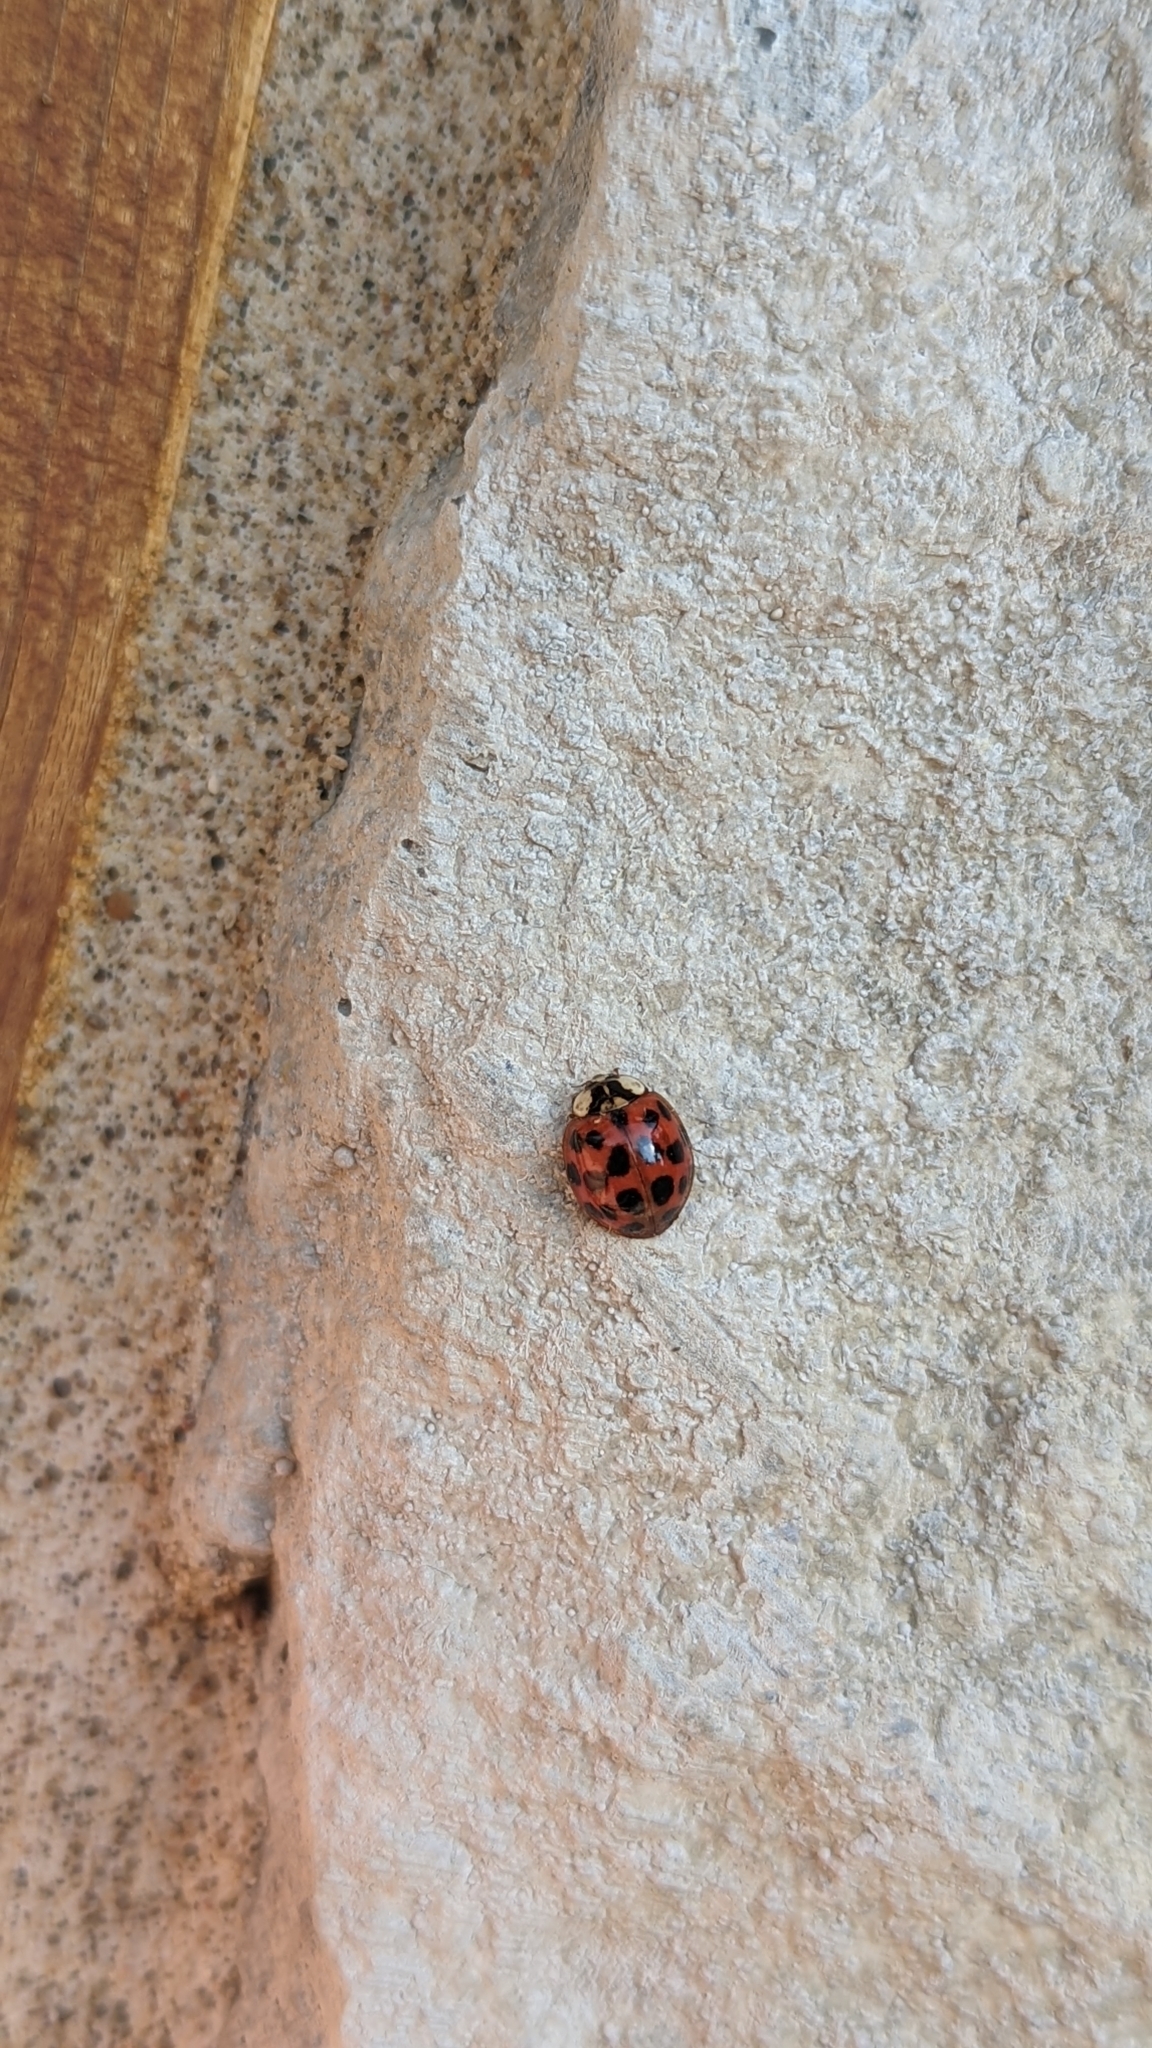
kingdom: Animalia
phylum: Arthropoda
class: Insecta
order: Coleoptera
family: Coccinellidae
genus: Harmonia
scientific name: Harmonia axyridis
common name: Harlequin ladybird
